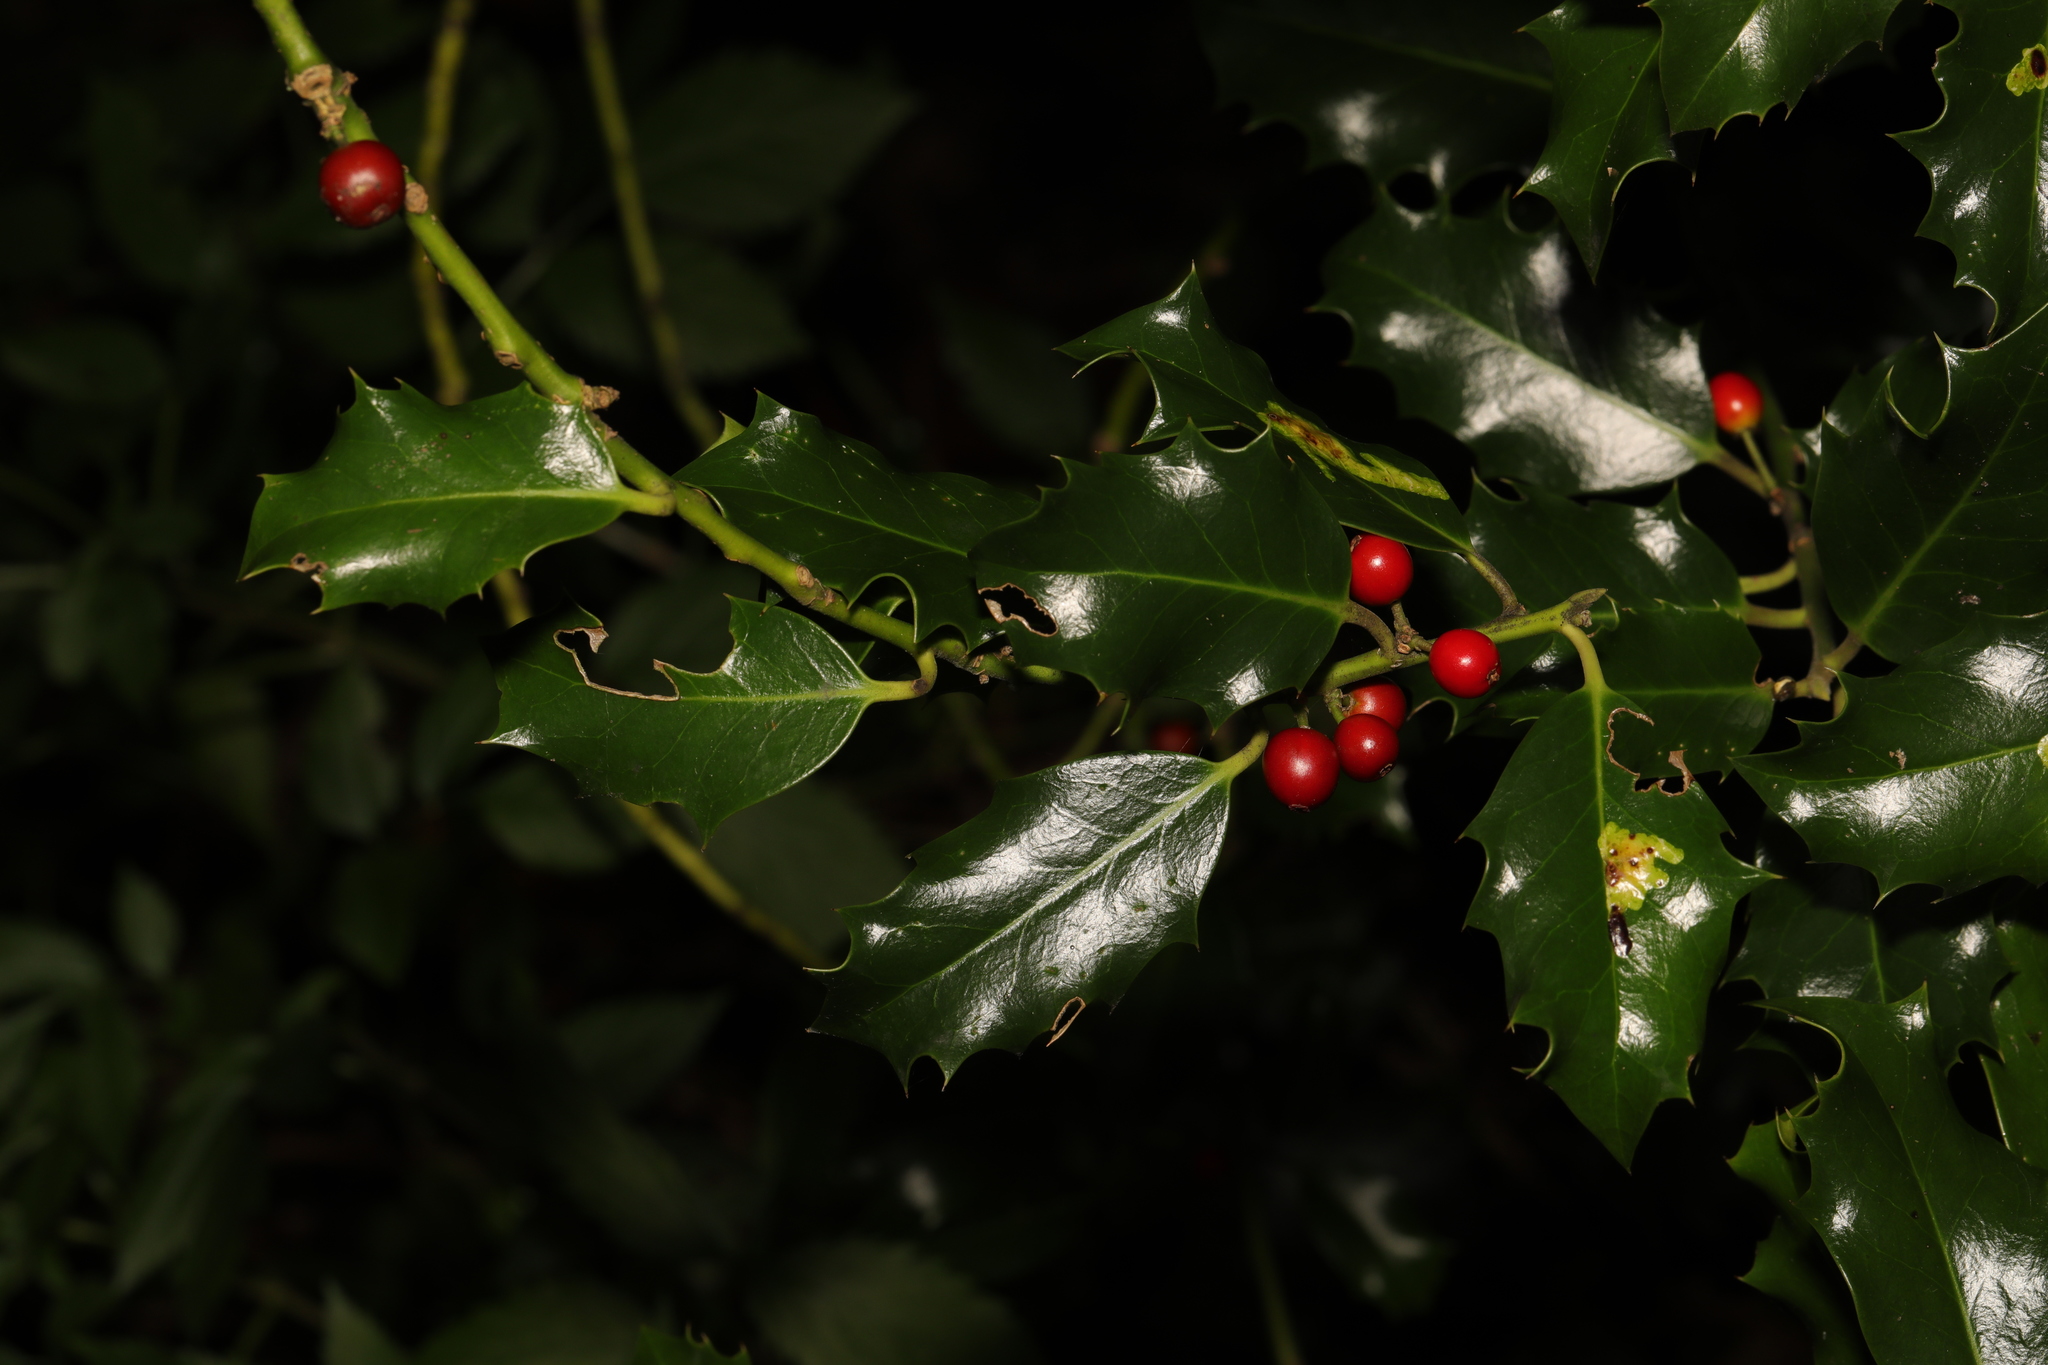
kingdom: Plantae
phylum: Tracheophyta
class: Magnoliopsida
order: Aquifoliales
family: Aquifoliaceae
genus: Ilex
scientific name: Ilex aquifolium
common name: English holly
